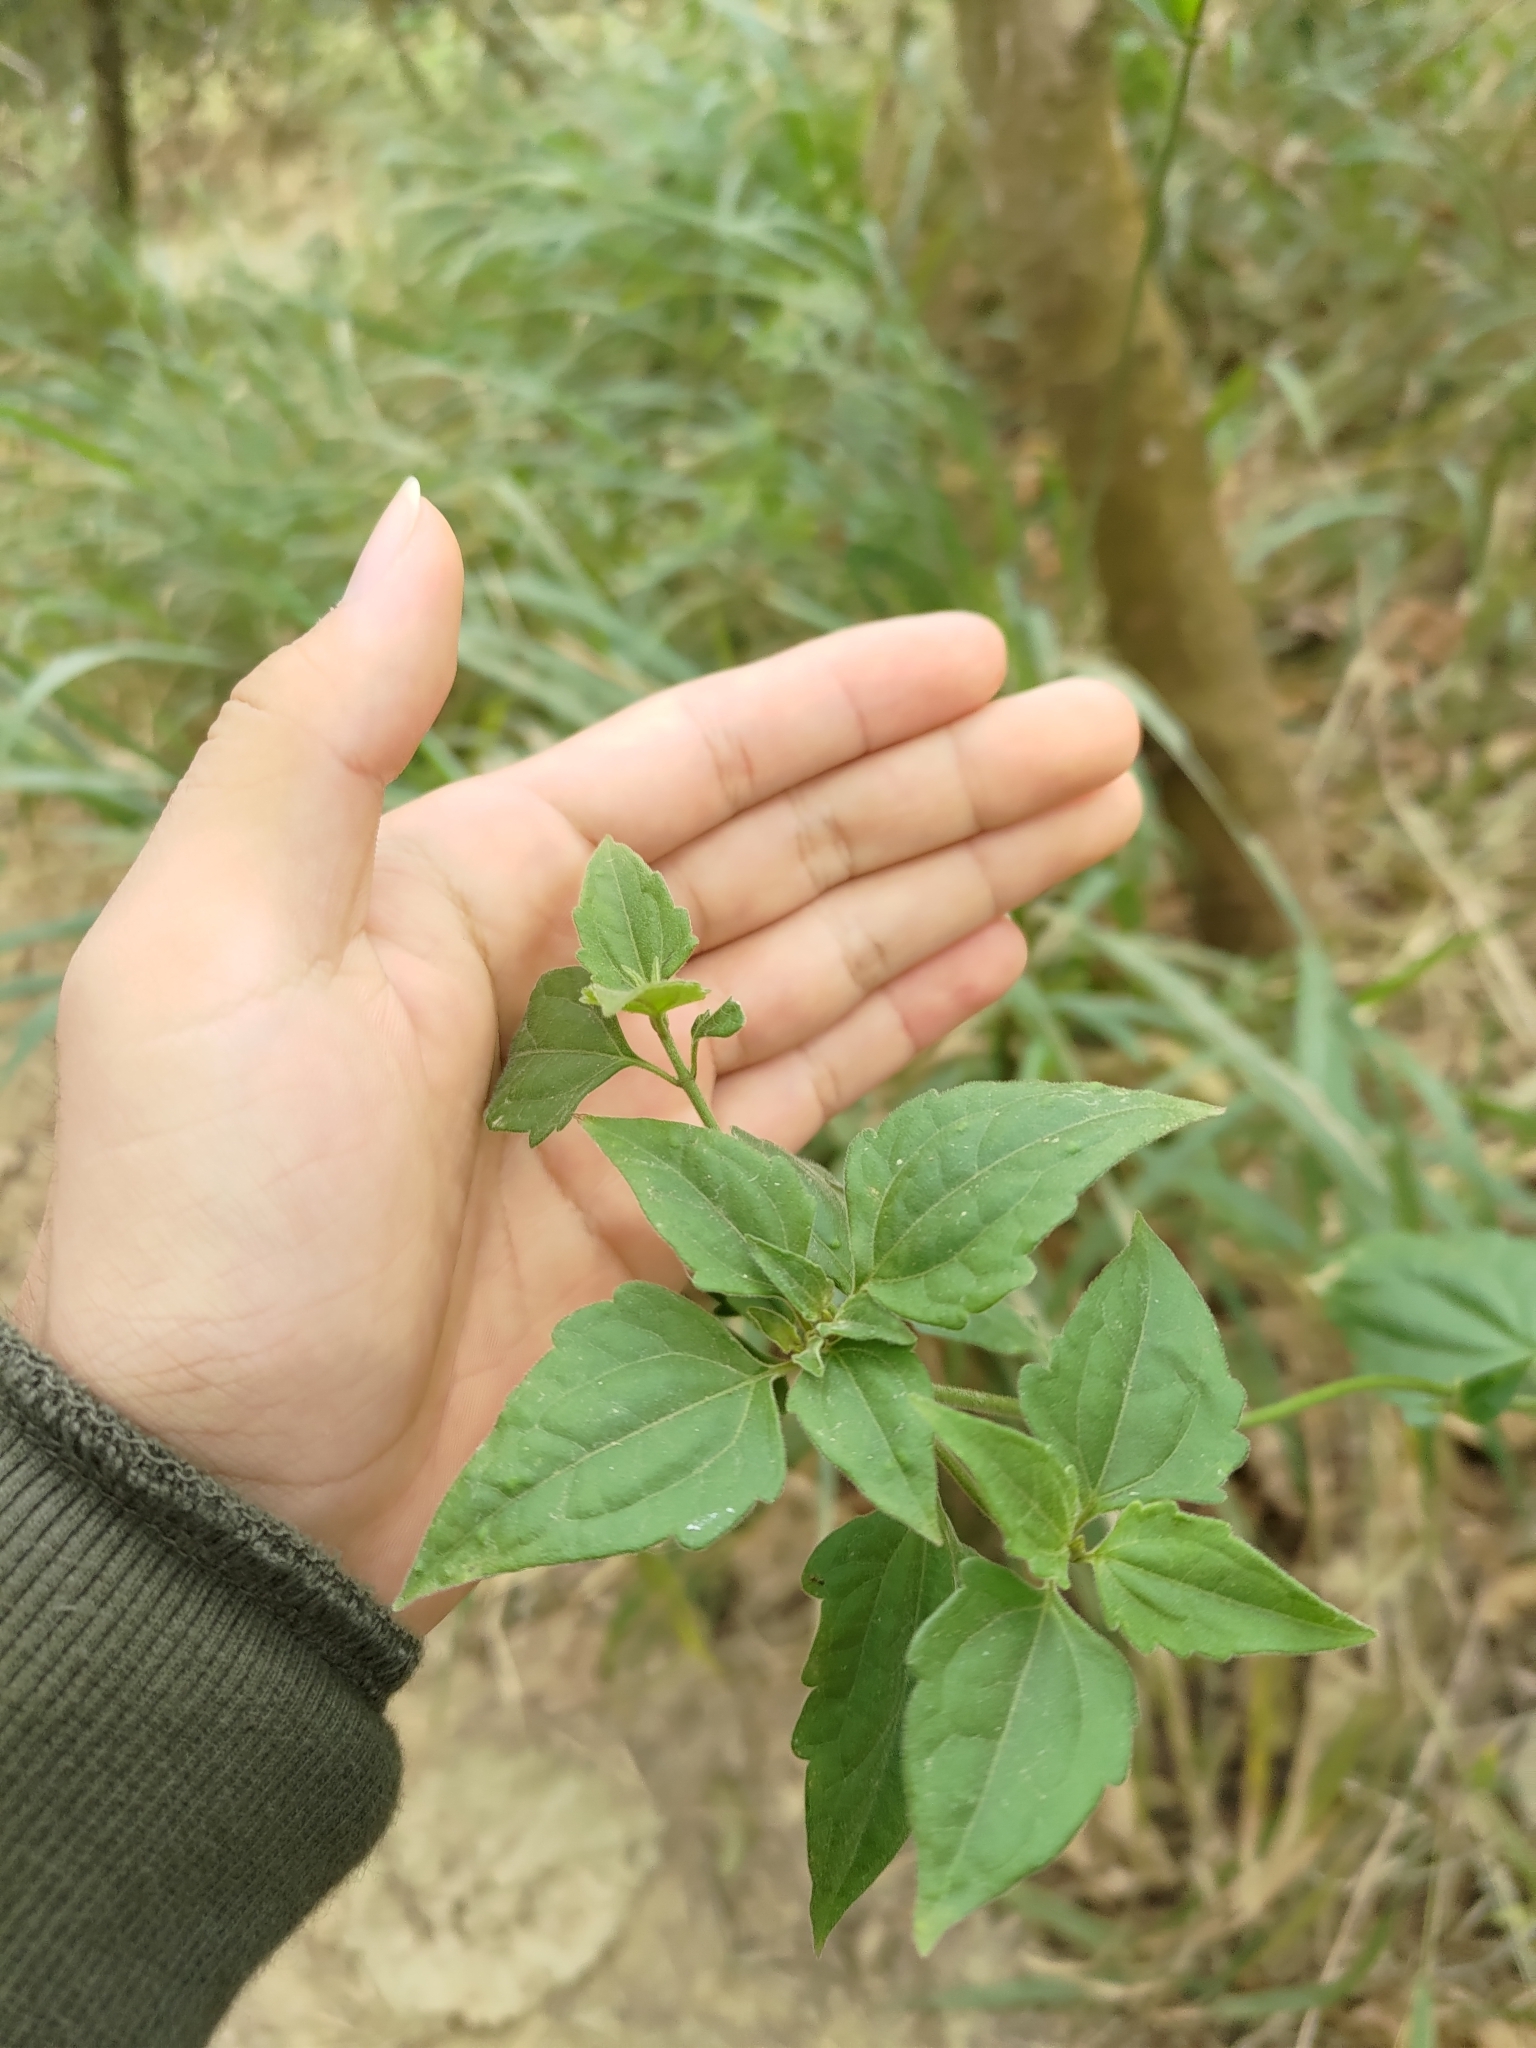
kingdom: Plantae
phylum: Tracheophyta
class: Magnoliopsida
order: Asterales
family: Asteraceae
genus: Chromolaena
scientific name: Chromolaena odorata
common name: Siamweed
